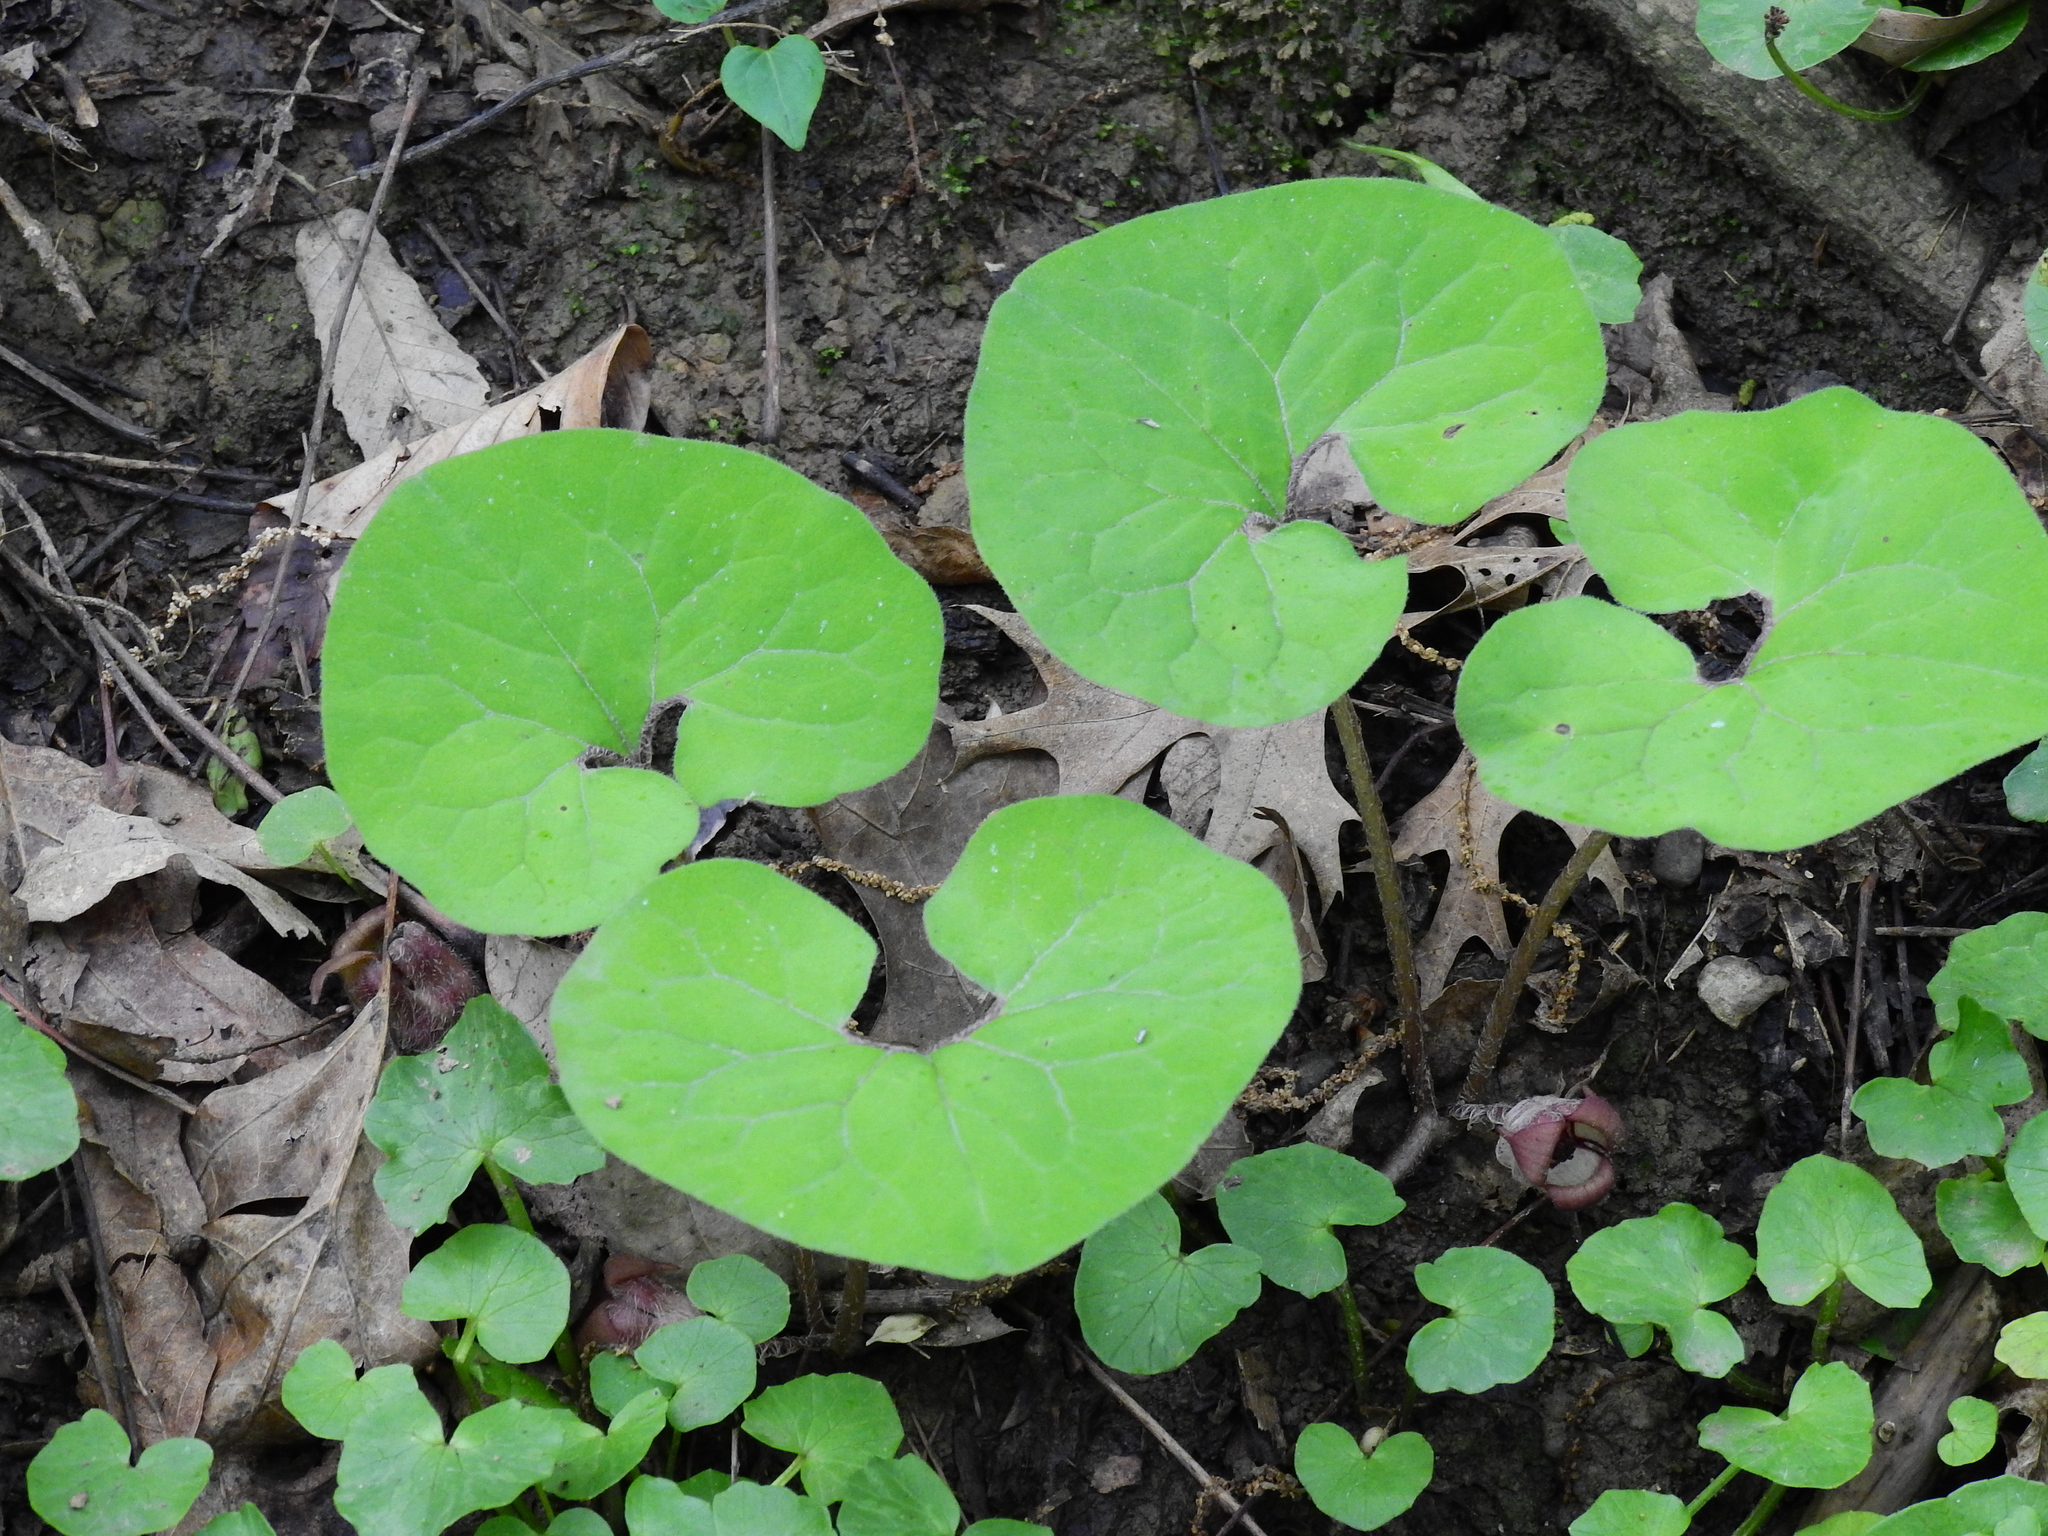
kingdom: Plantae
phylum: Tracheophyta
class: Magnoliopsida
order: Piperales
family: Aristolochiaceae
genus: Asarum
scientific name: Asarum canadense
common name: Wild ginger
